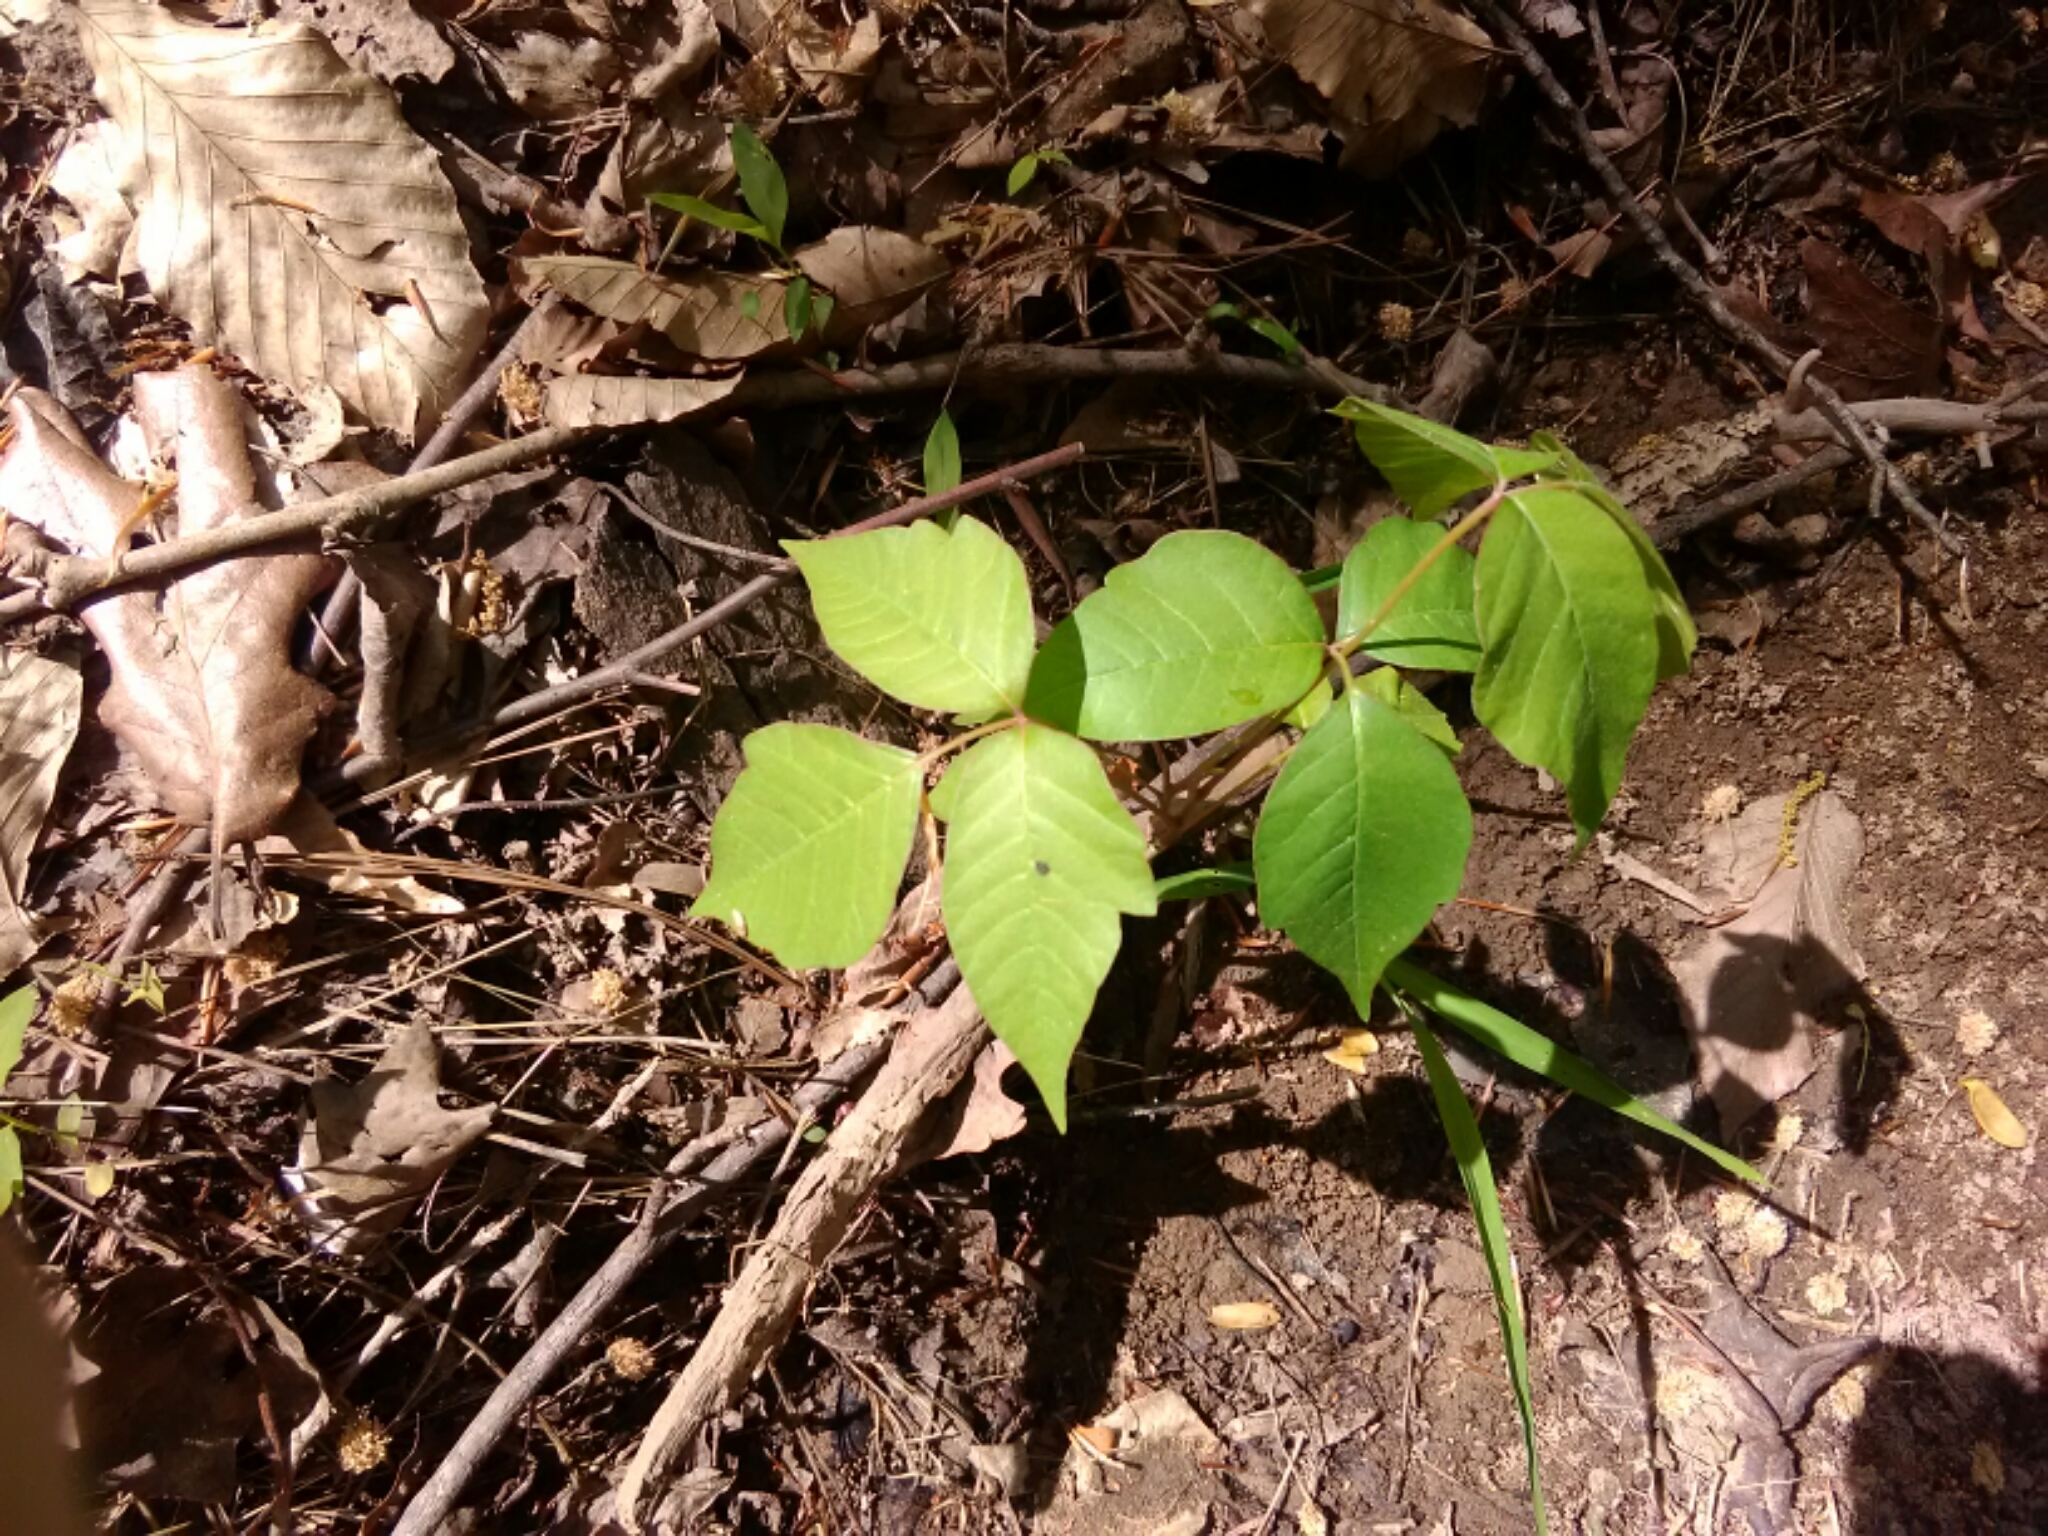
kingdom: Plantae
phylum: Tracheophyta
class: Magnoliopsida
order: Sapindales
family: Anacardiaceae
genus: Toxicodendron
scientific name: Toxicodendron radicans
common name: Poison ivy
